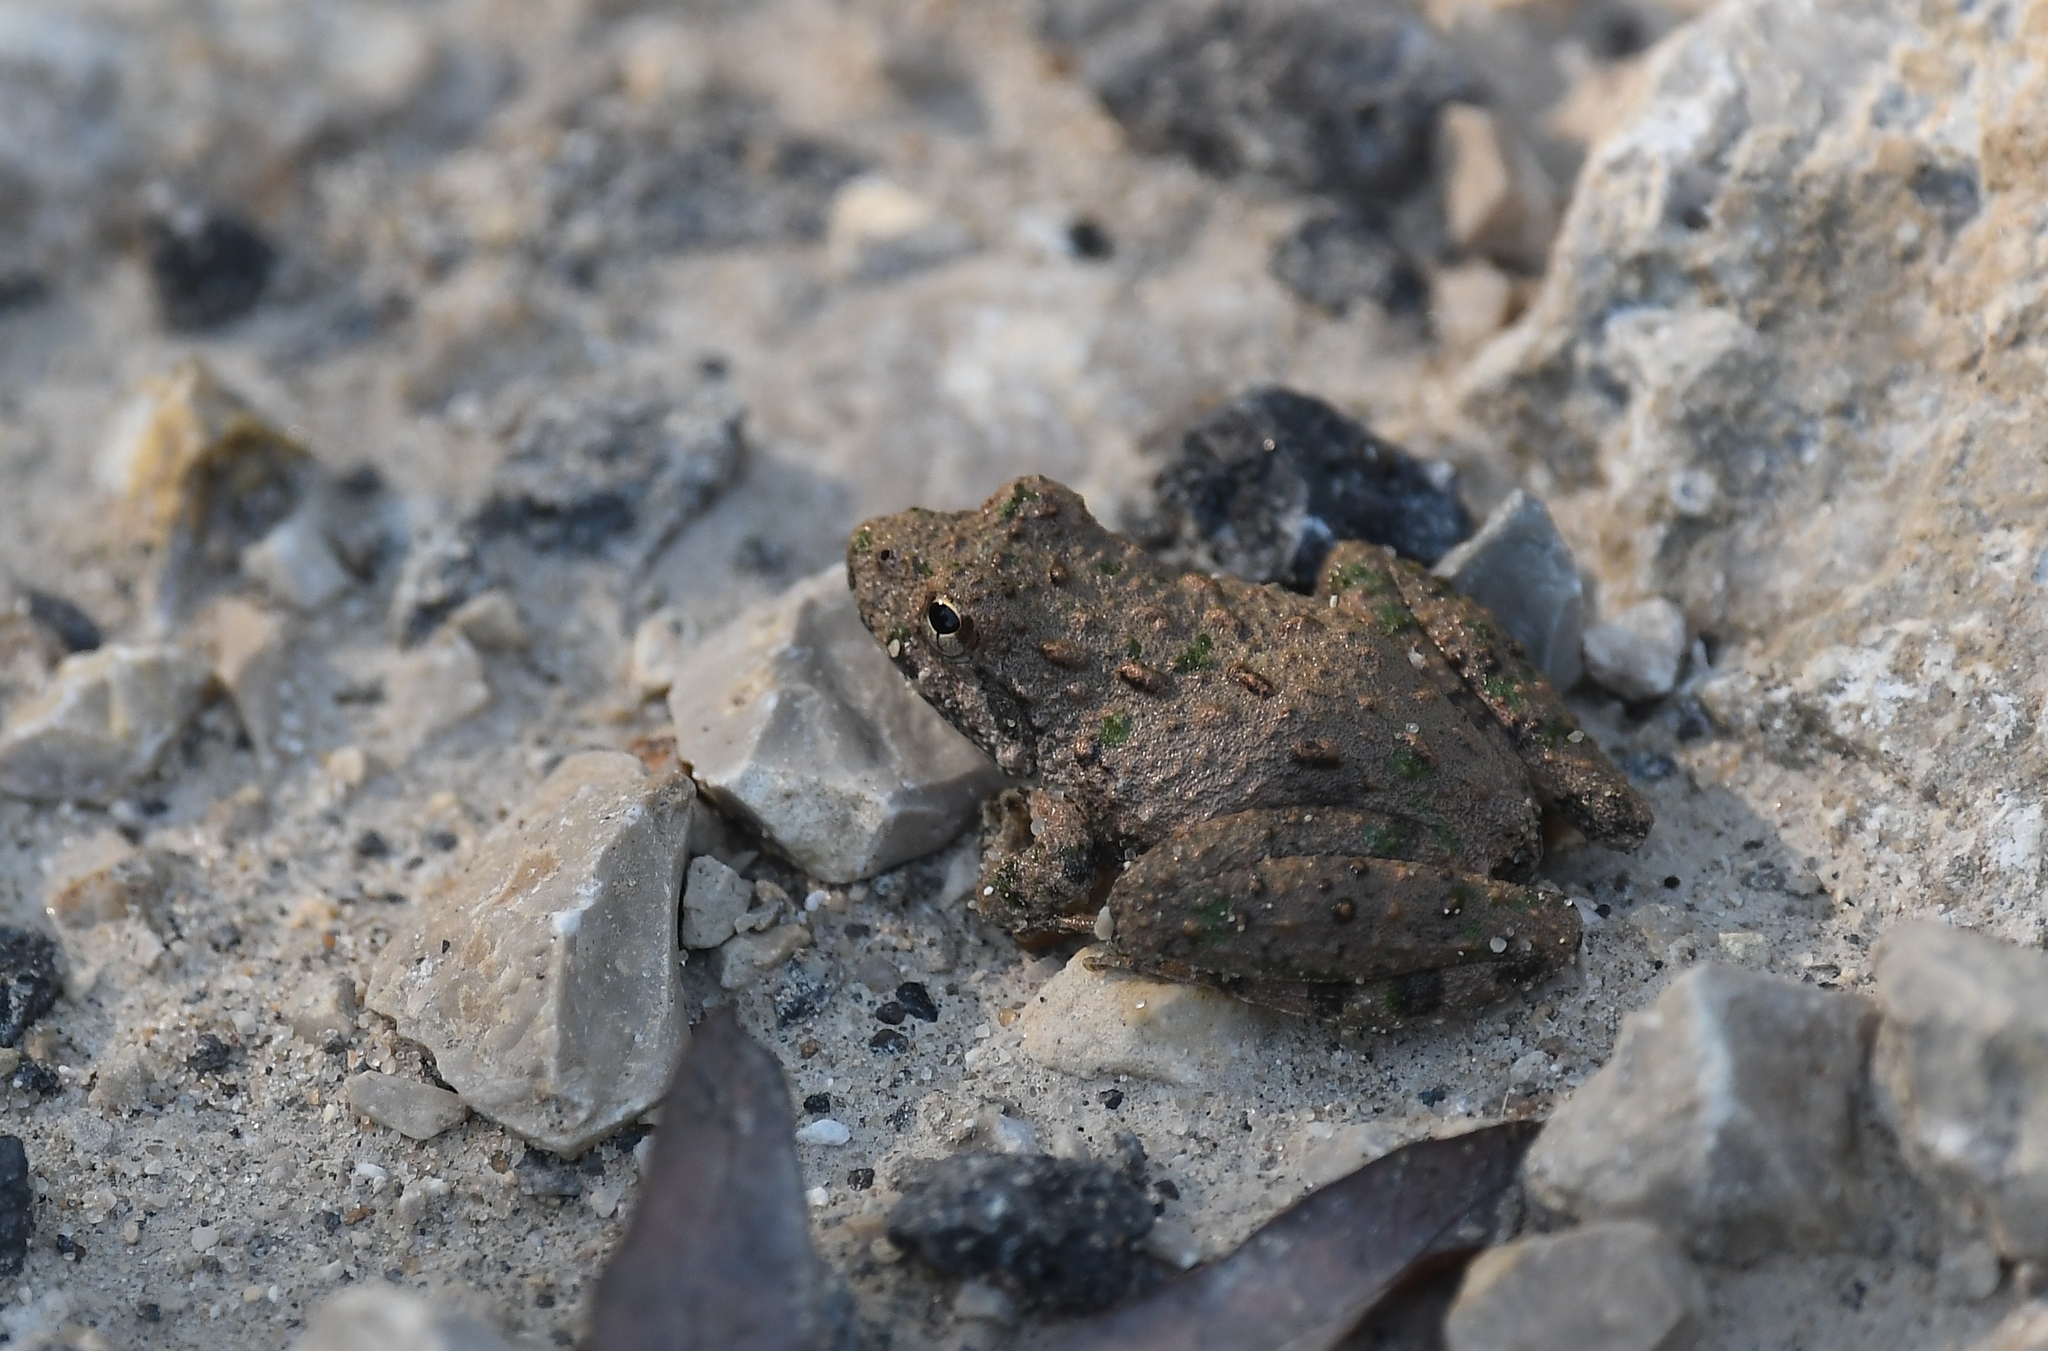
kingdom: Animalia
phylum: Chordata
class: Amphibia
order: Anura
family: Hylidae
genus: Acris
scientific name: Acris blanchardi
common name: Blanchard's cricket frog
